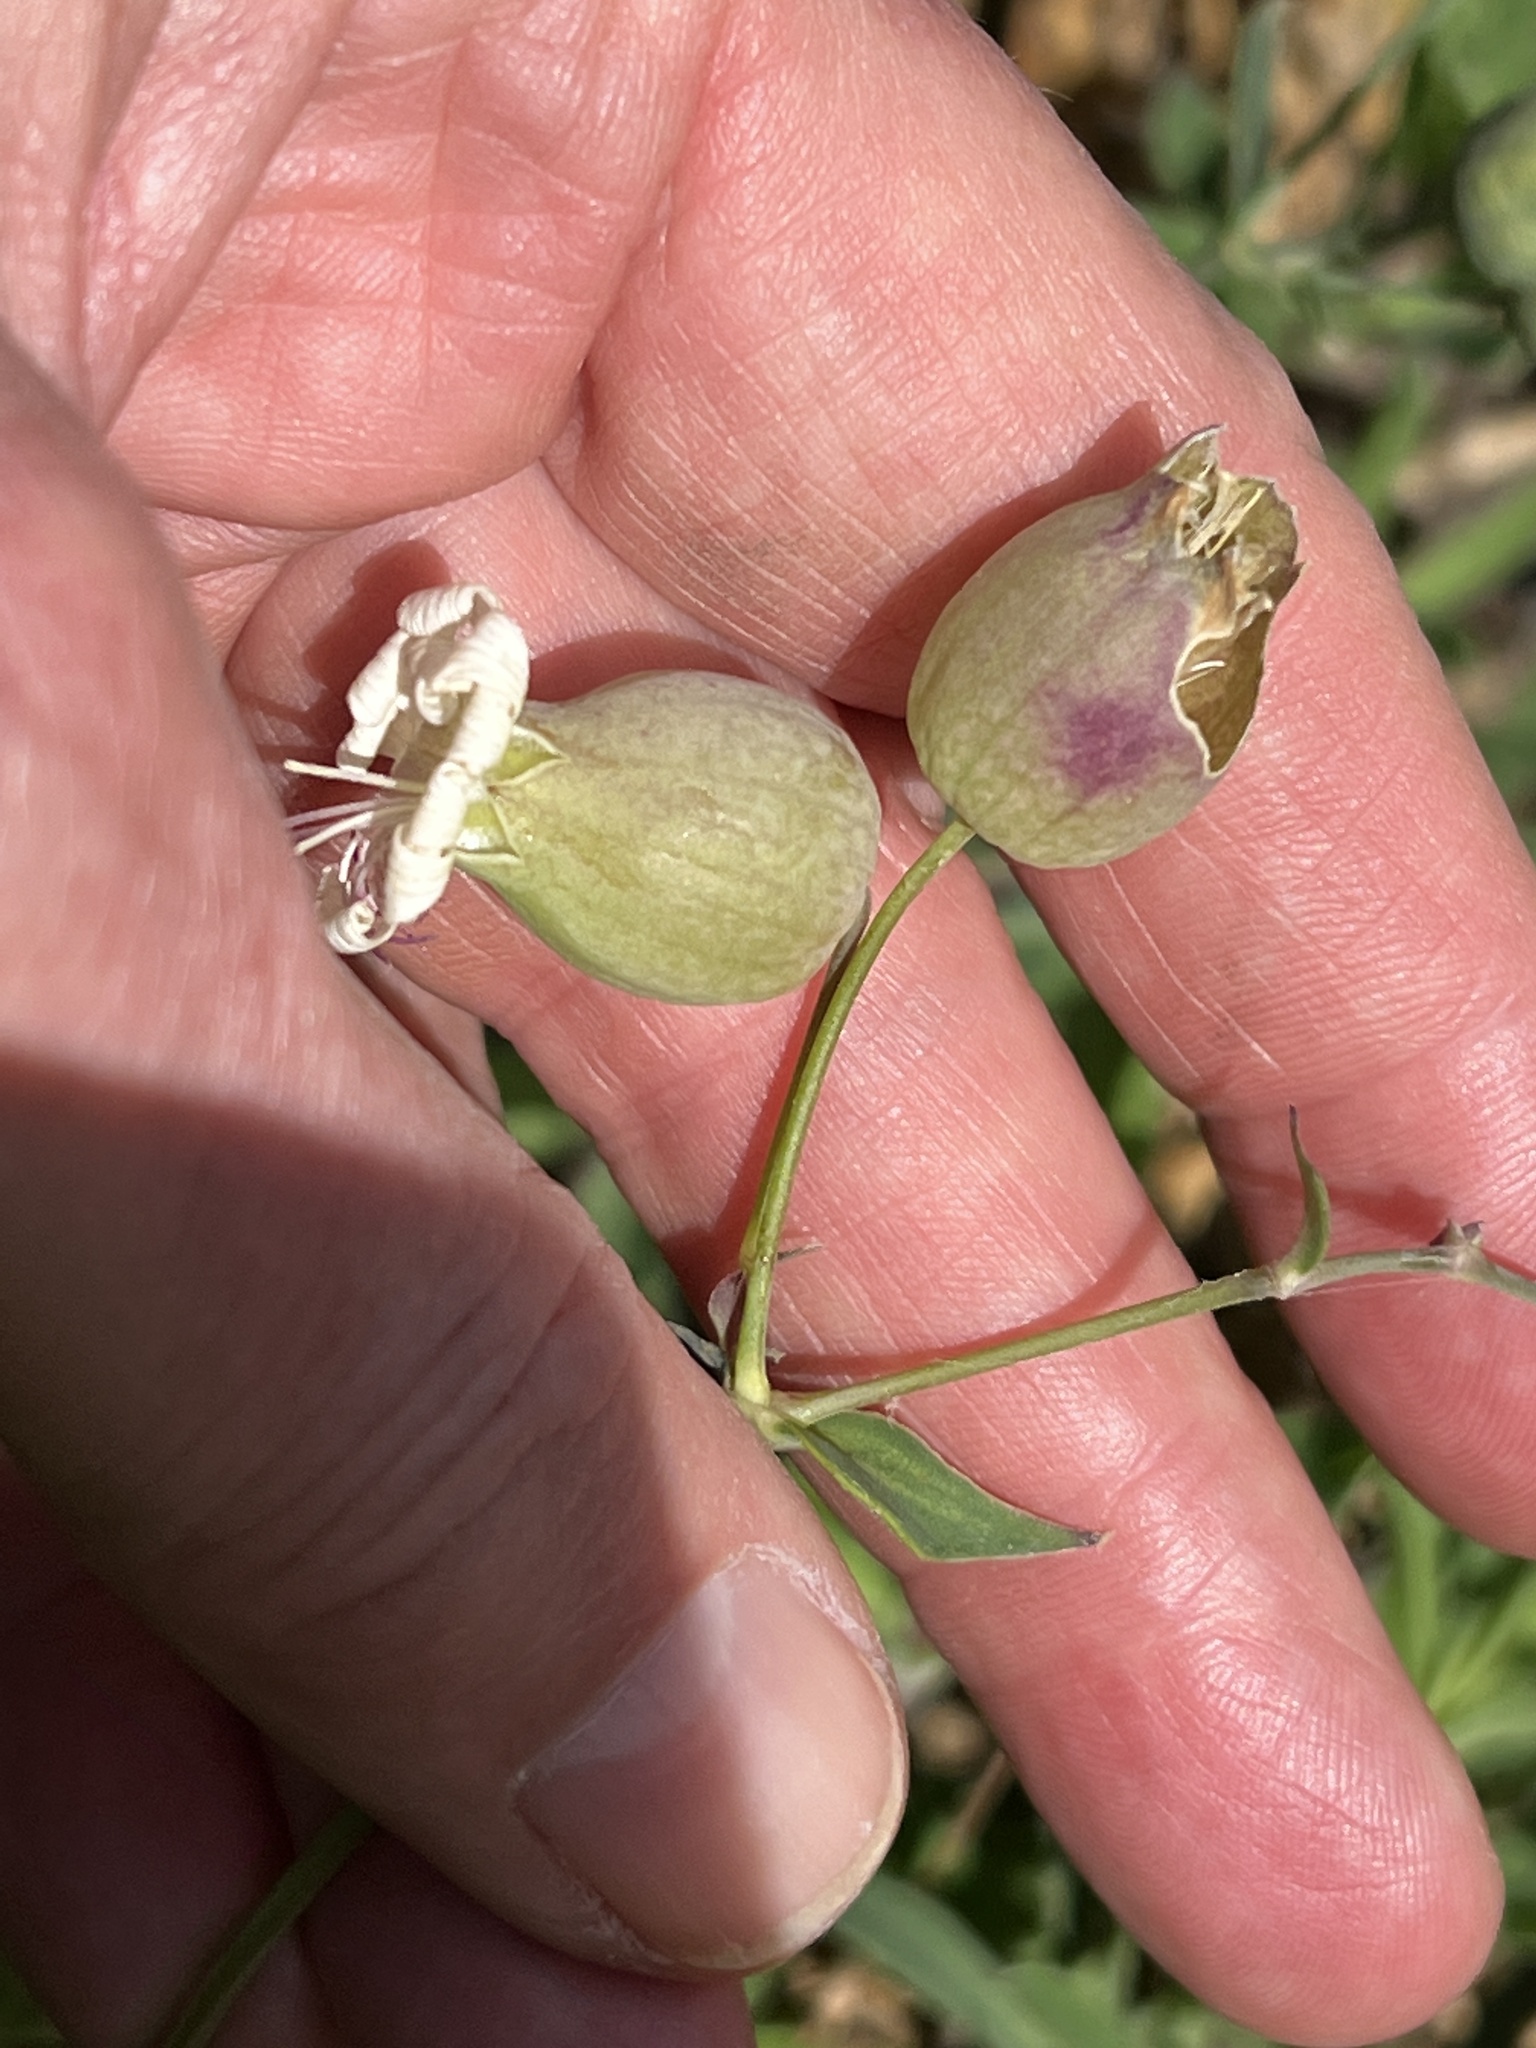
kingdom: Plantae
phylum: Tracheophyta
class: Magnoliopsida
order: Caryophyllales
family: Caryophyllaceae
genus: Silene
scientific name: Silene vulgaris
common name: Bladder campion
